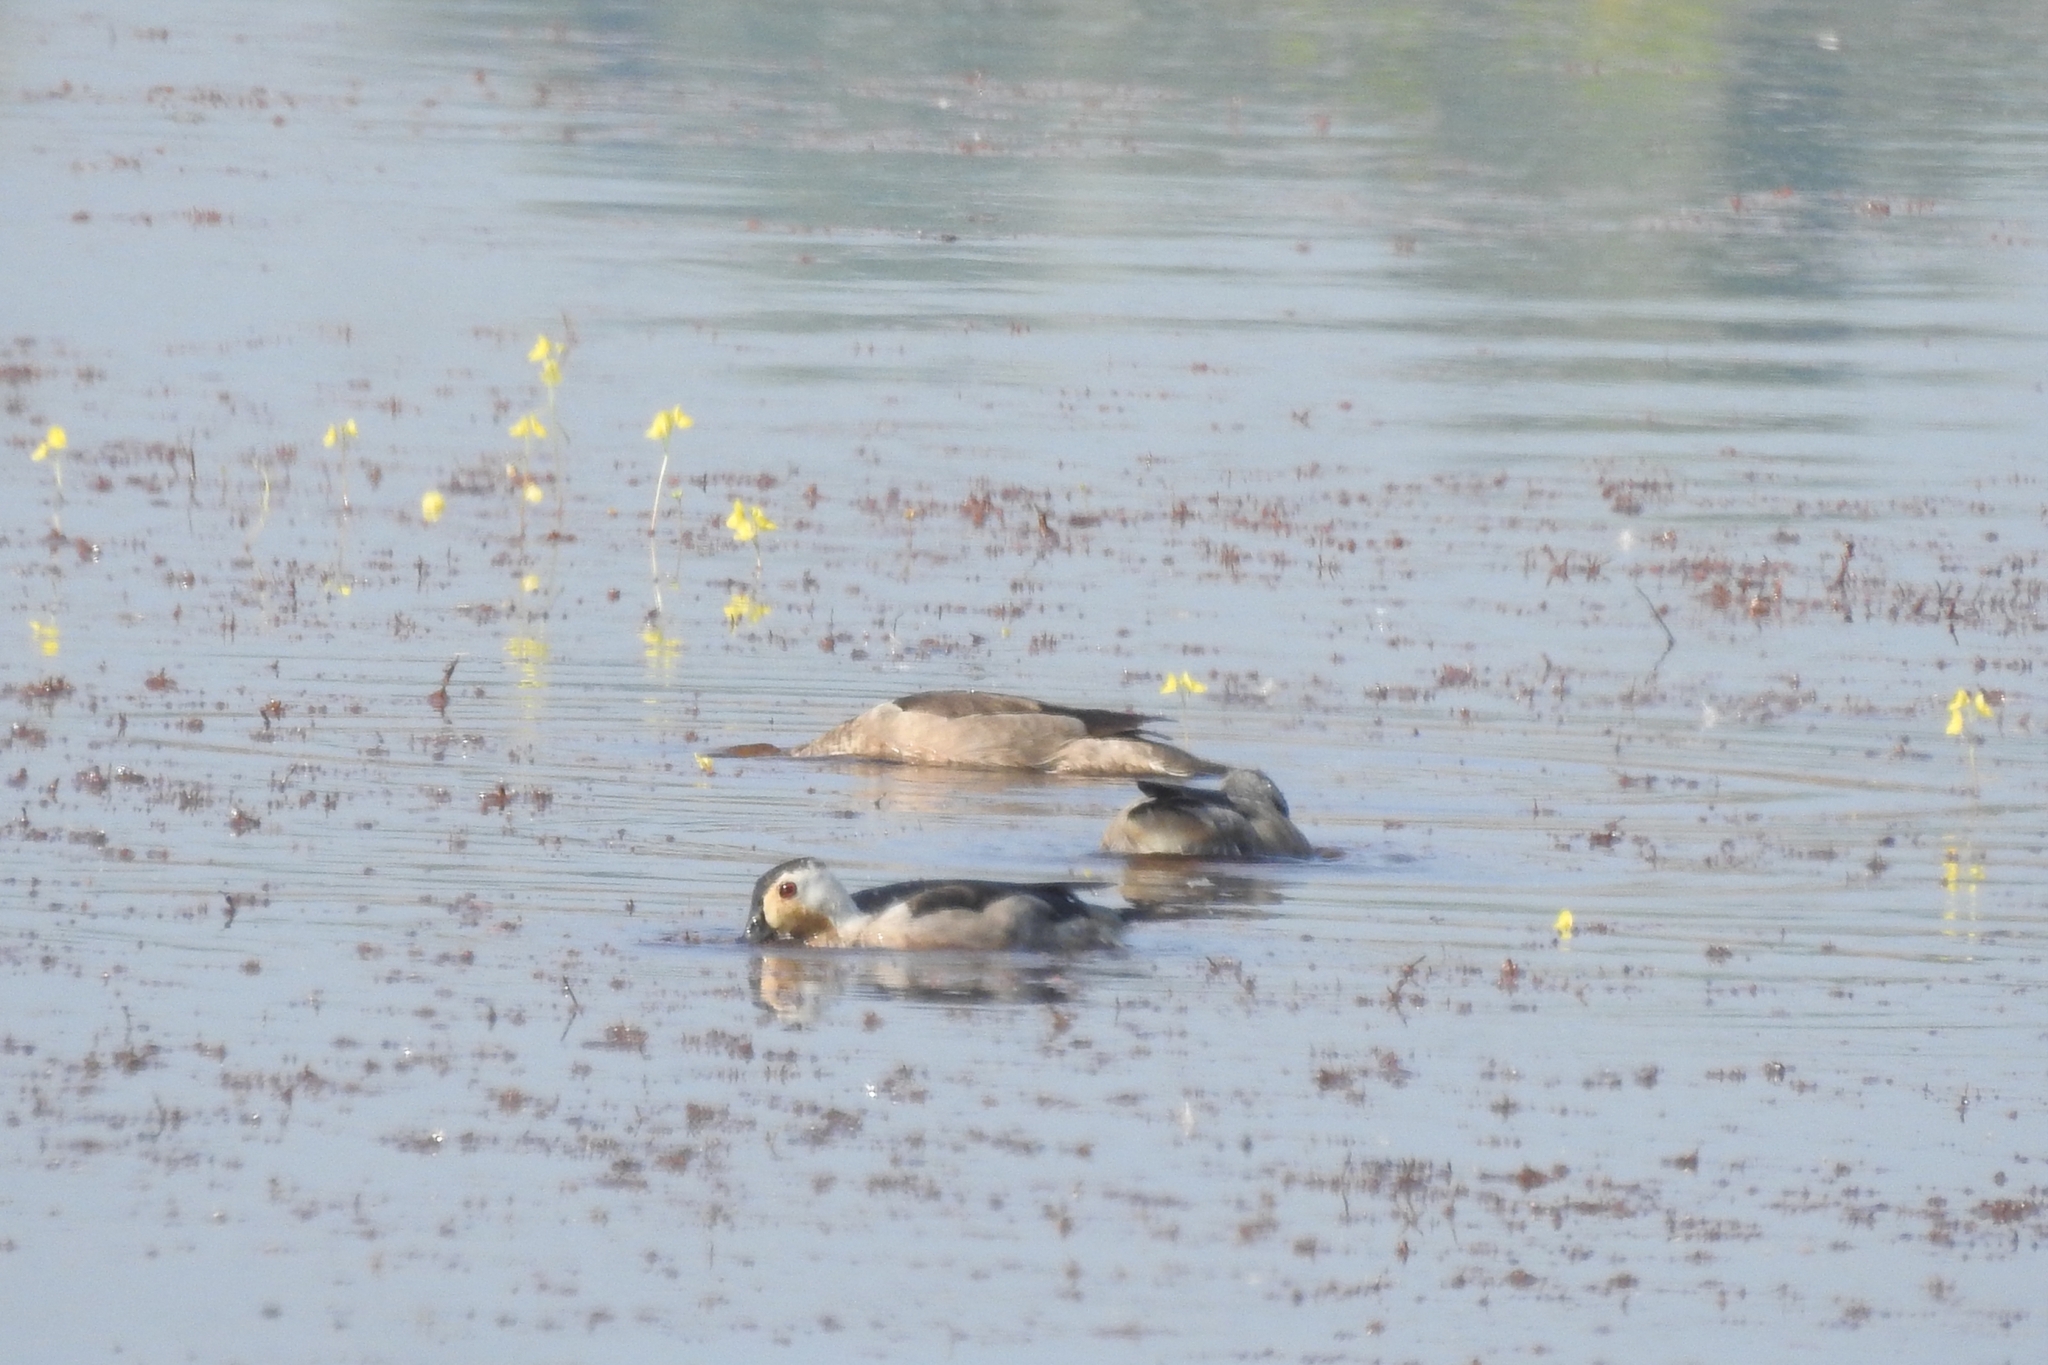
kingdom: Animalia
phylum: Chordata
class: Aves
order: Anseriformes
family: Anatidae
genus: Nettapus
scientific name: Nettapus coromandelianus
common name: Cotton pygmy-goose
